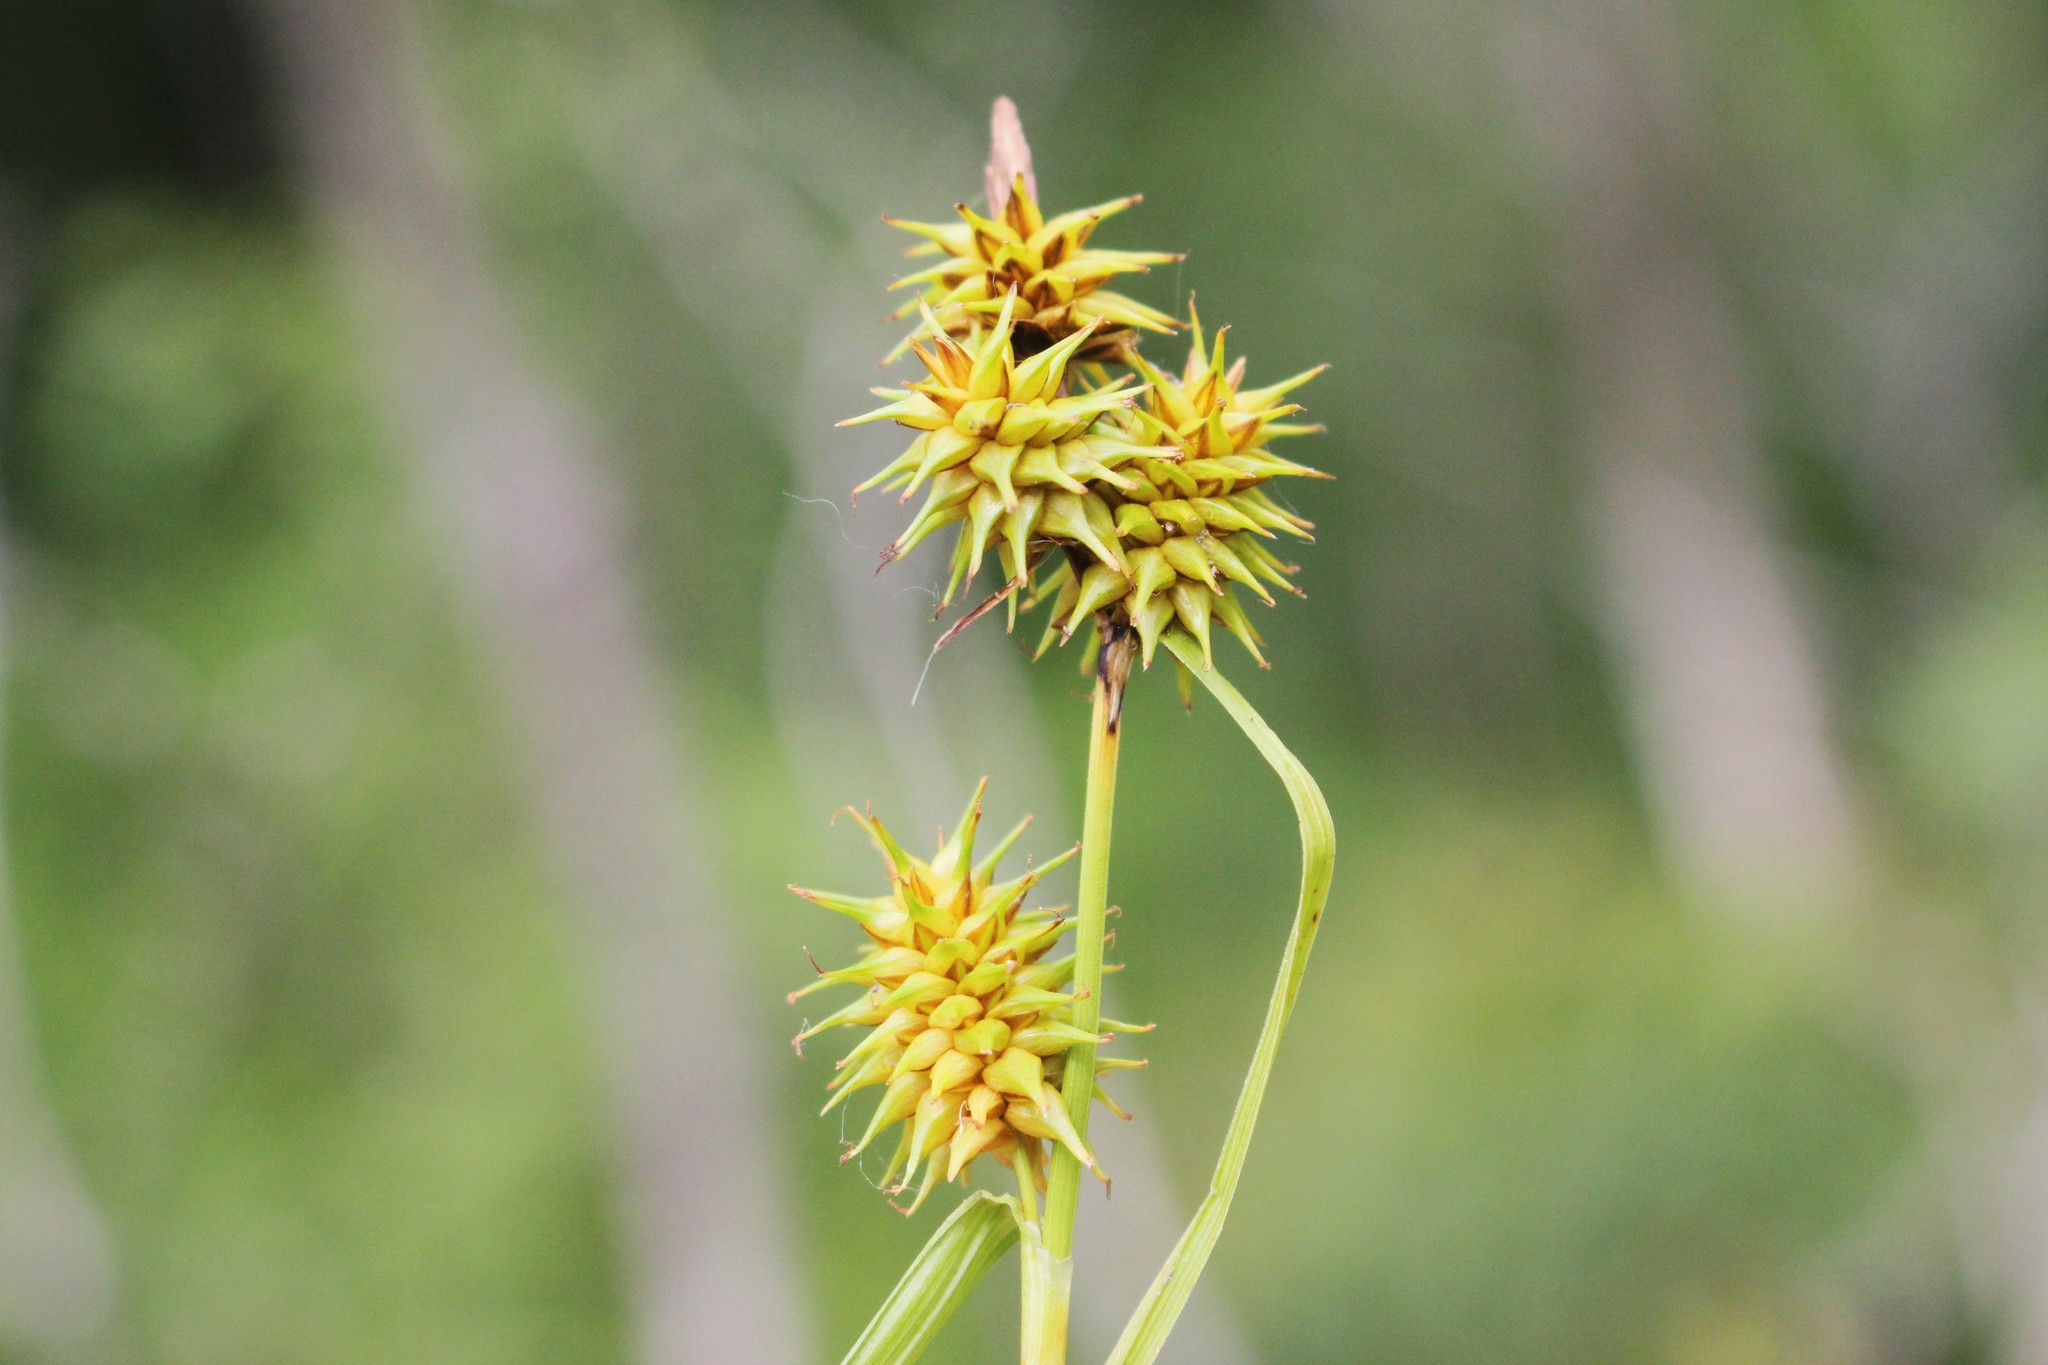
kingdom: Plantae
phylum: Tracheophyta
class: Liliopsida
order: Poales
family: Cyperaceae
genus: Carex
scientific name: Carex flava
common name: Large yellow-sedge
